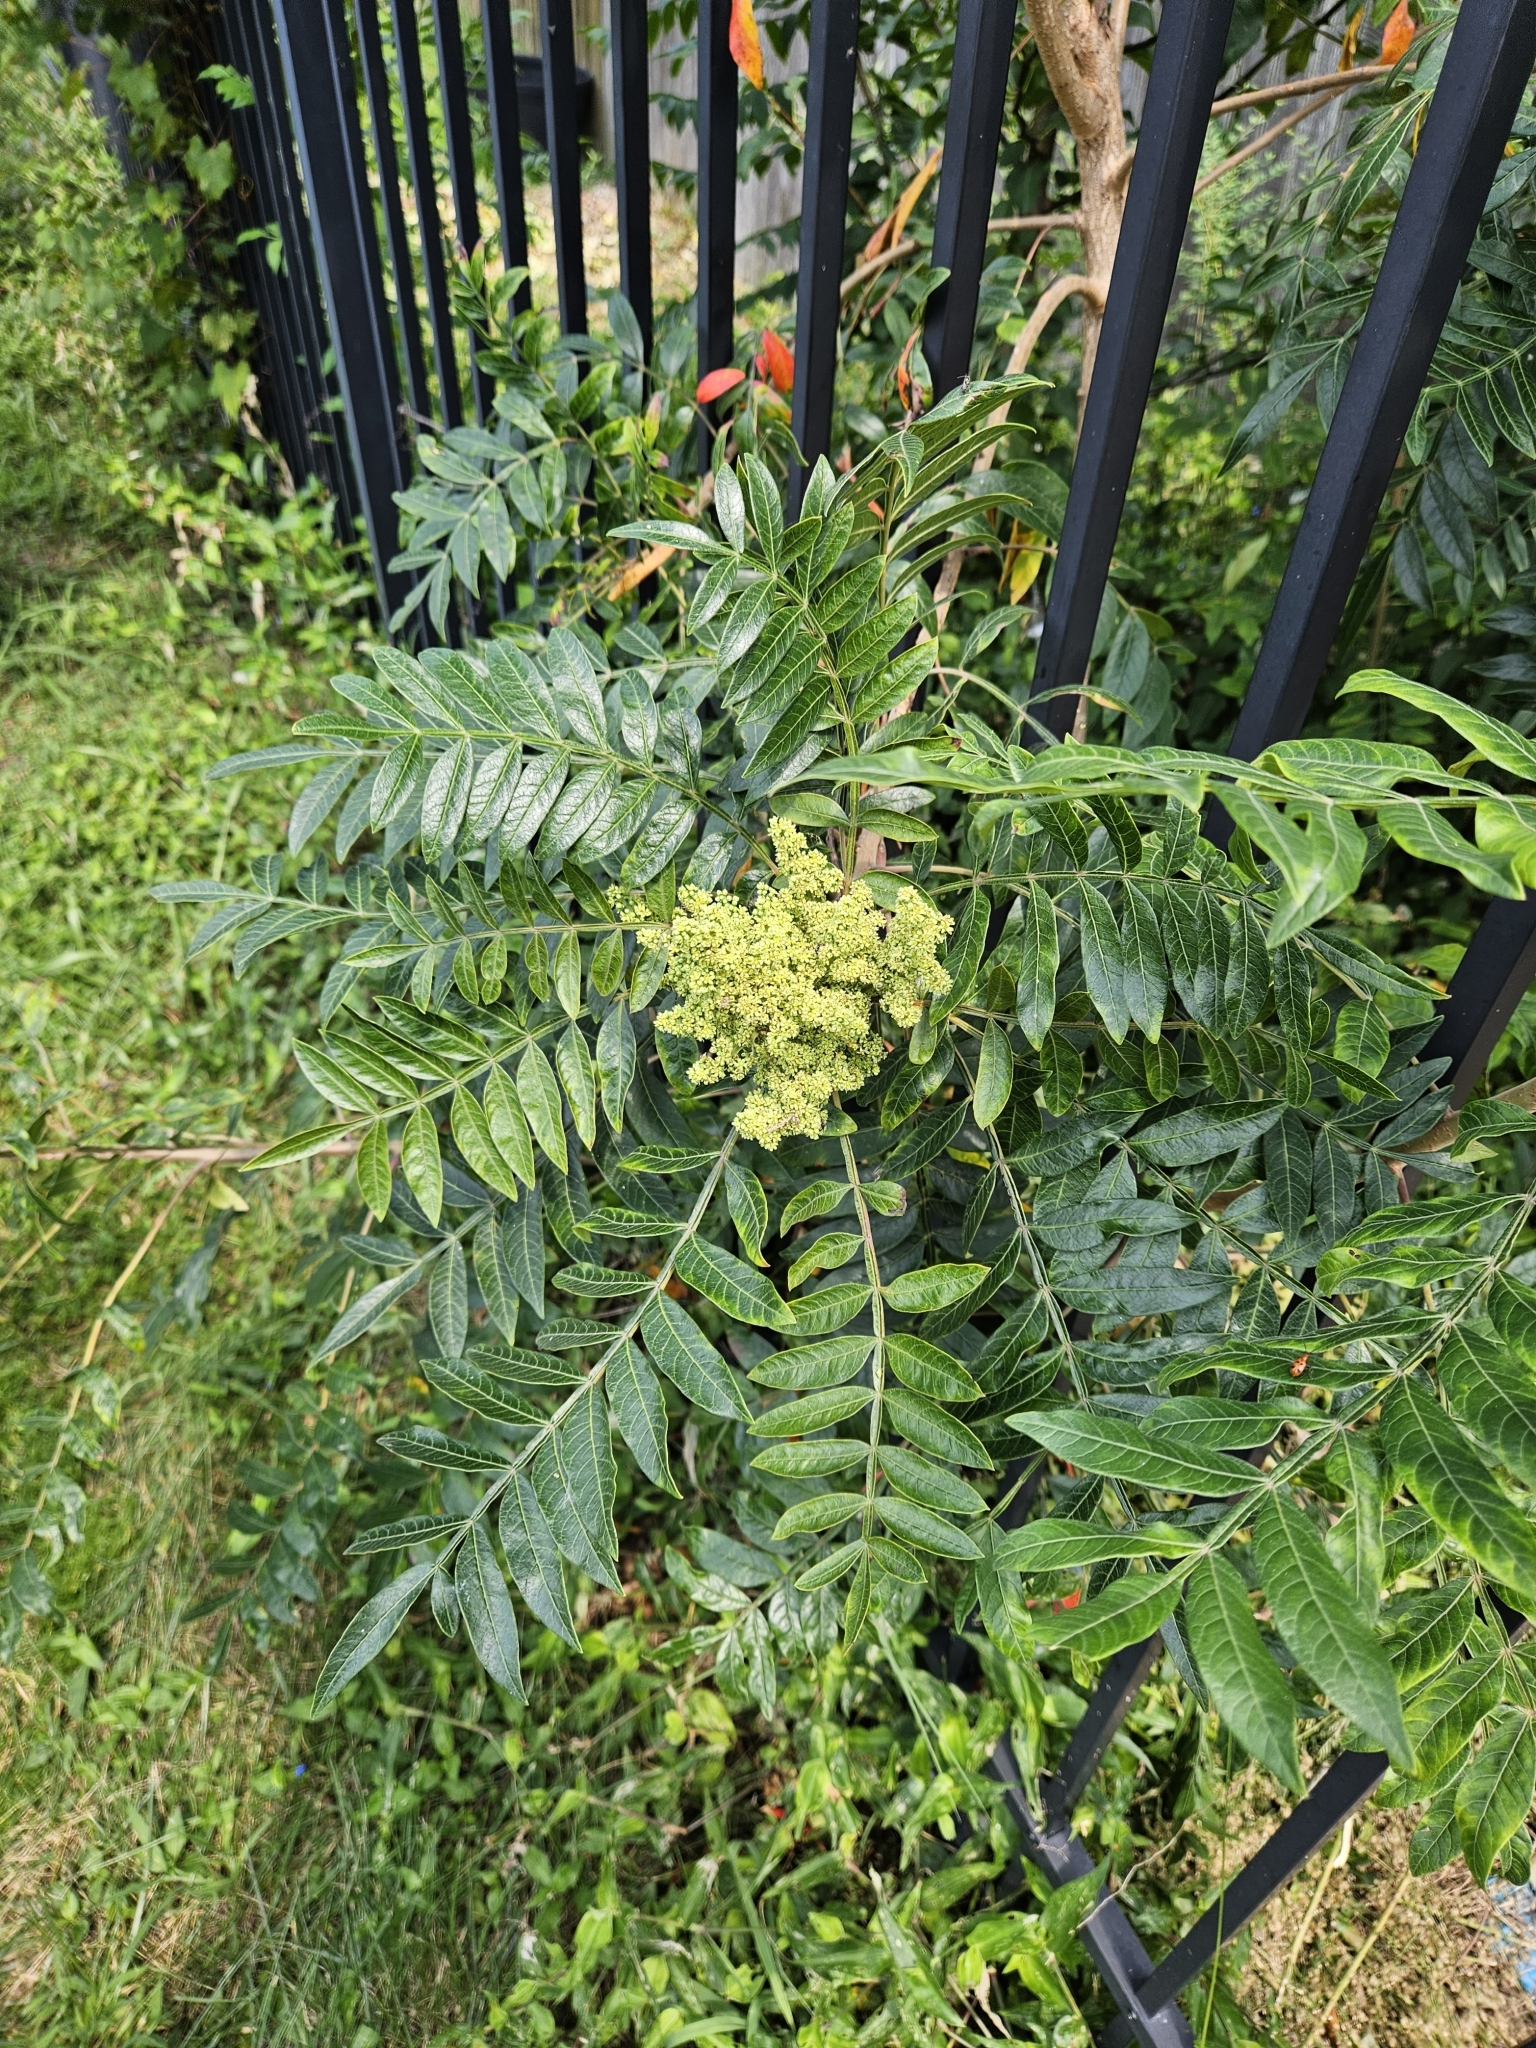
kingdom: Plantae
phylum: Tracheophyta
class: Magnoliopsida
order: Sapindales
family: Anacardiaceae
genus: Rhus
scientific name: Rhus copallina
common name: Shining sumac
